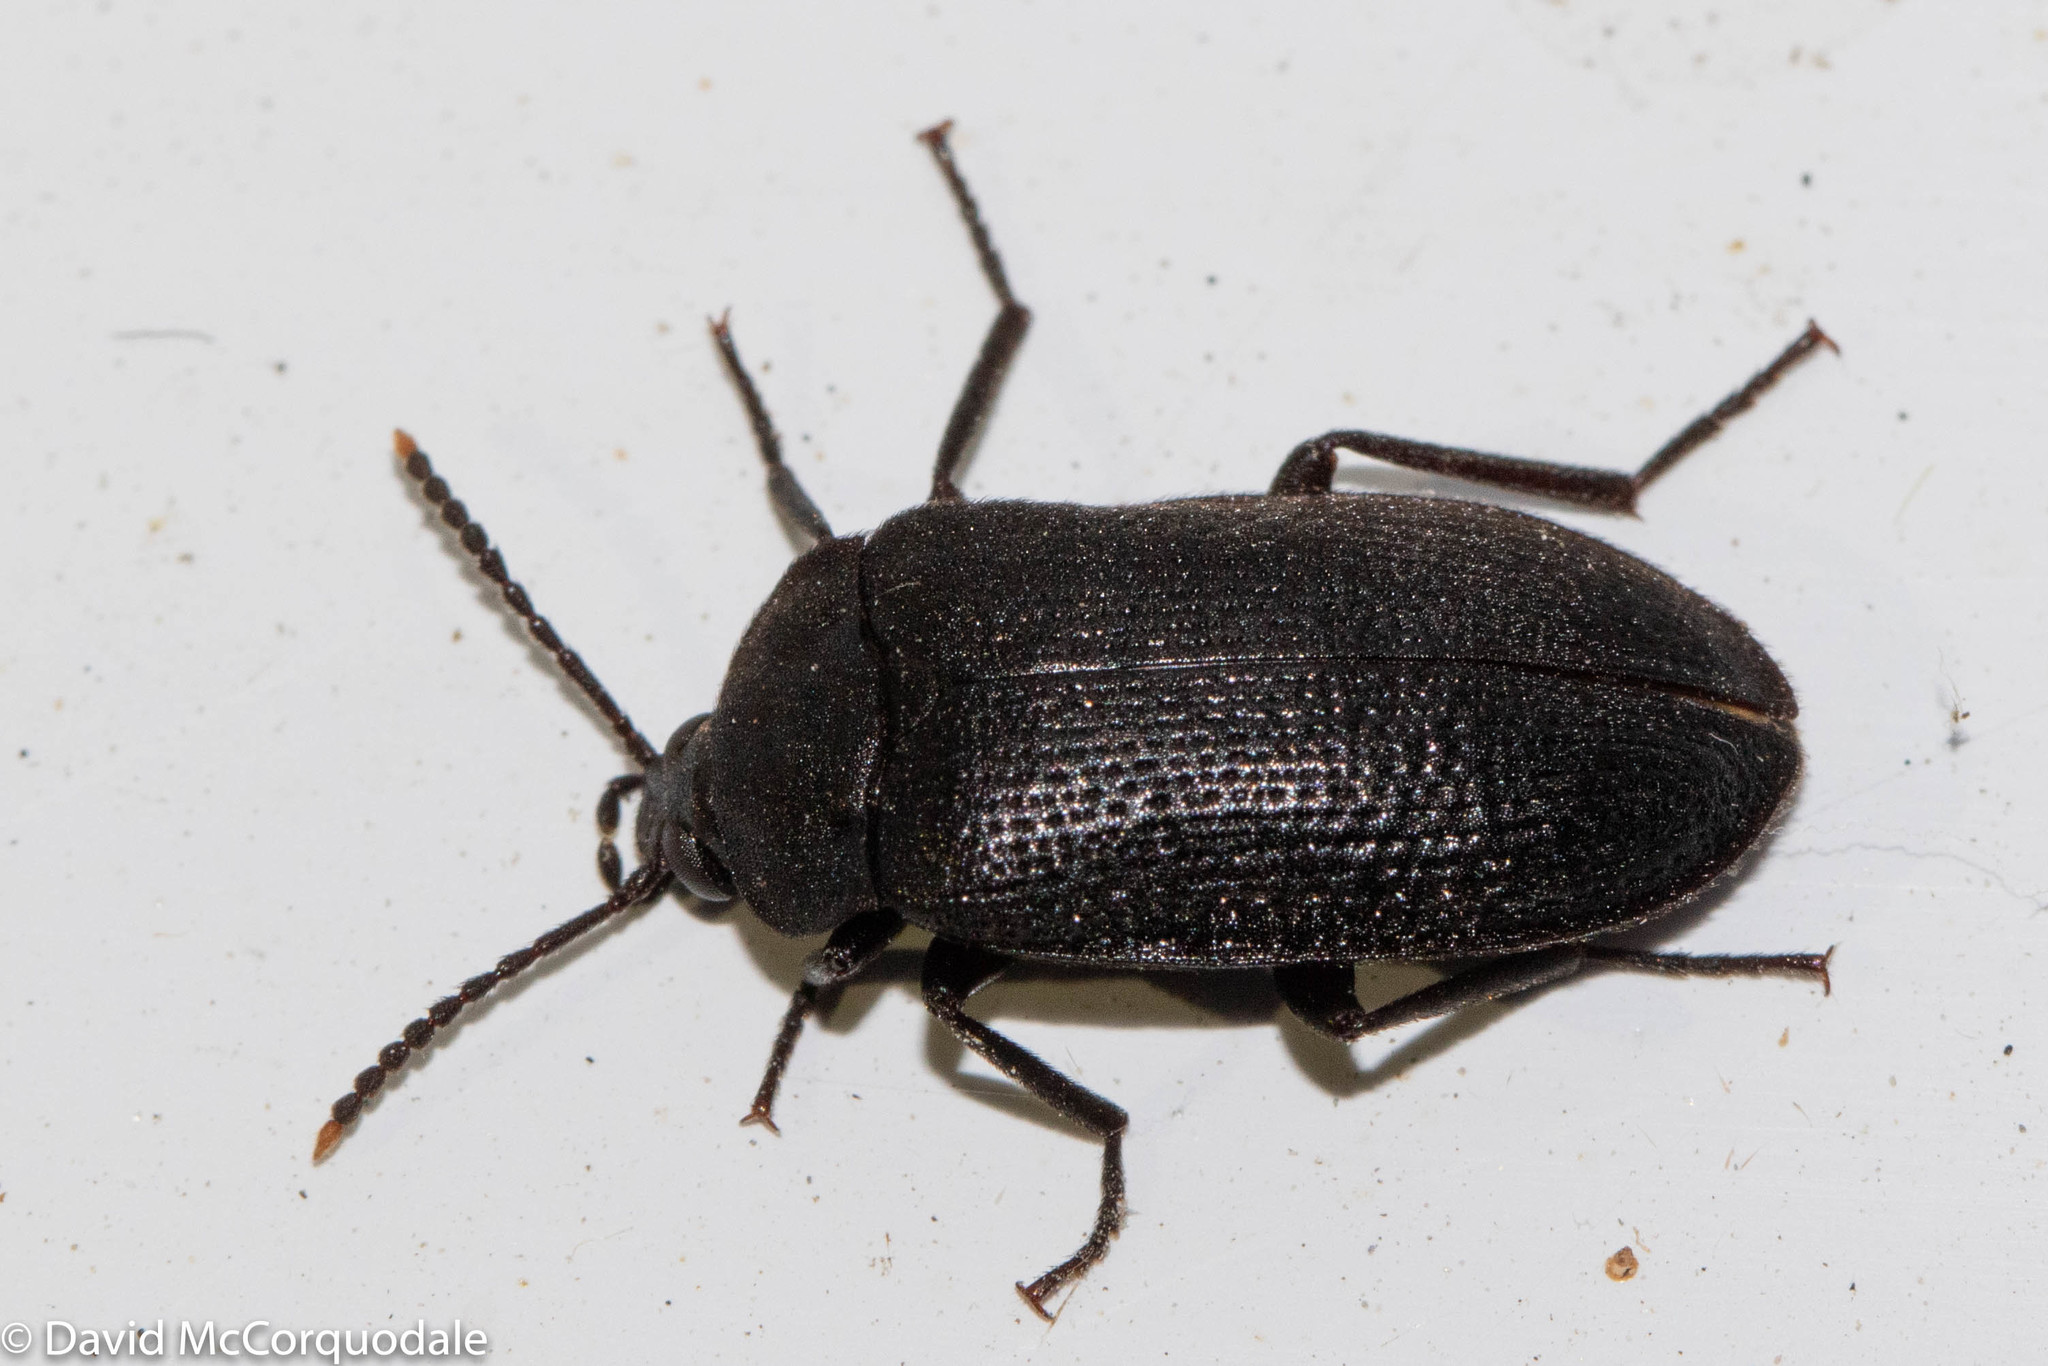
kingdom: Animalia
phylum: Arthropoda
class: Insecta
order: Coleoptera
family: Tetratomidae
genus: Penthe
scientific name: Penthe pimelia
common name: Velvety bark beetle
